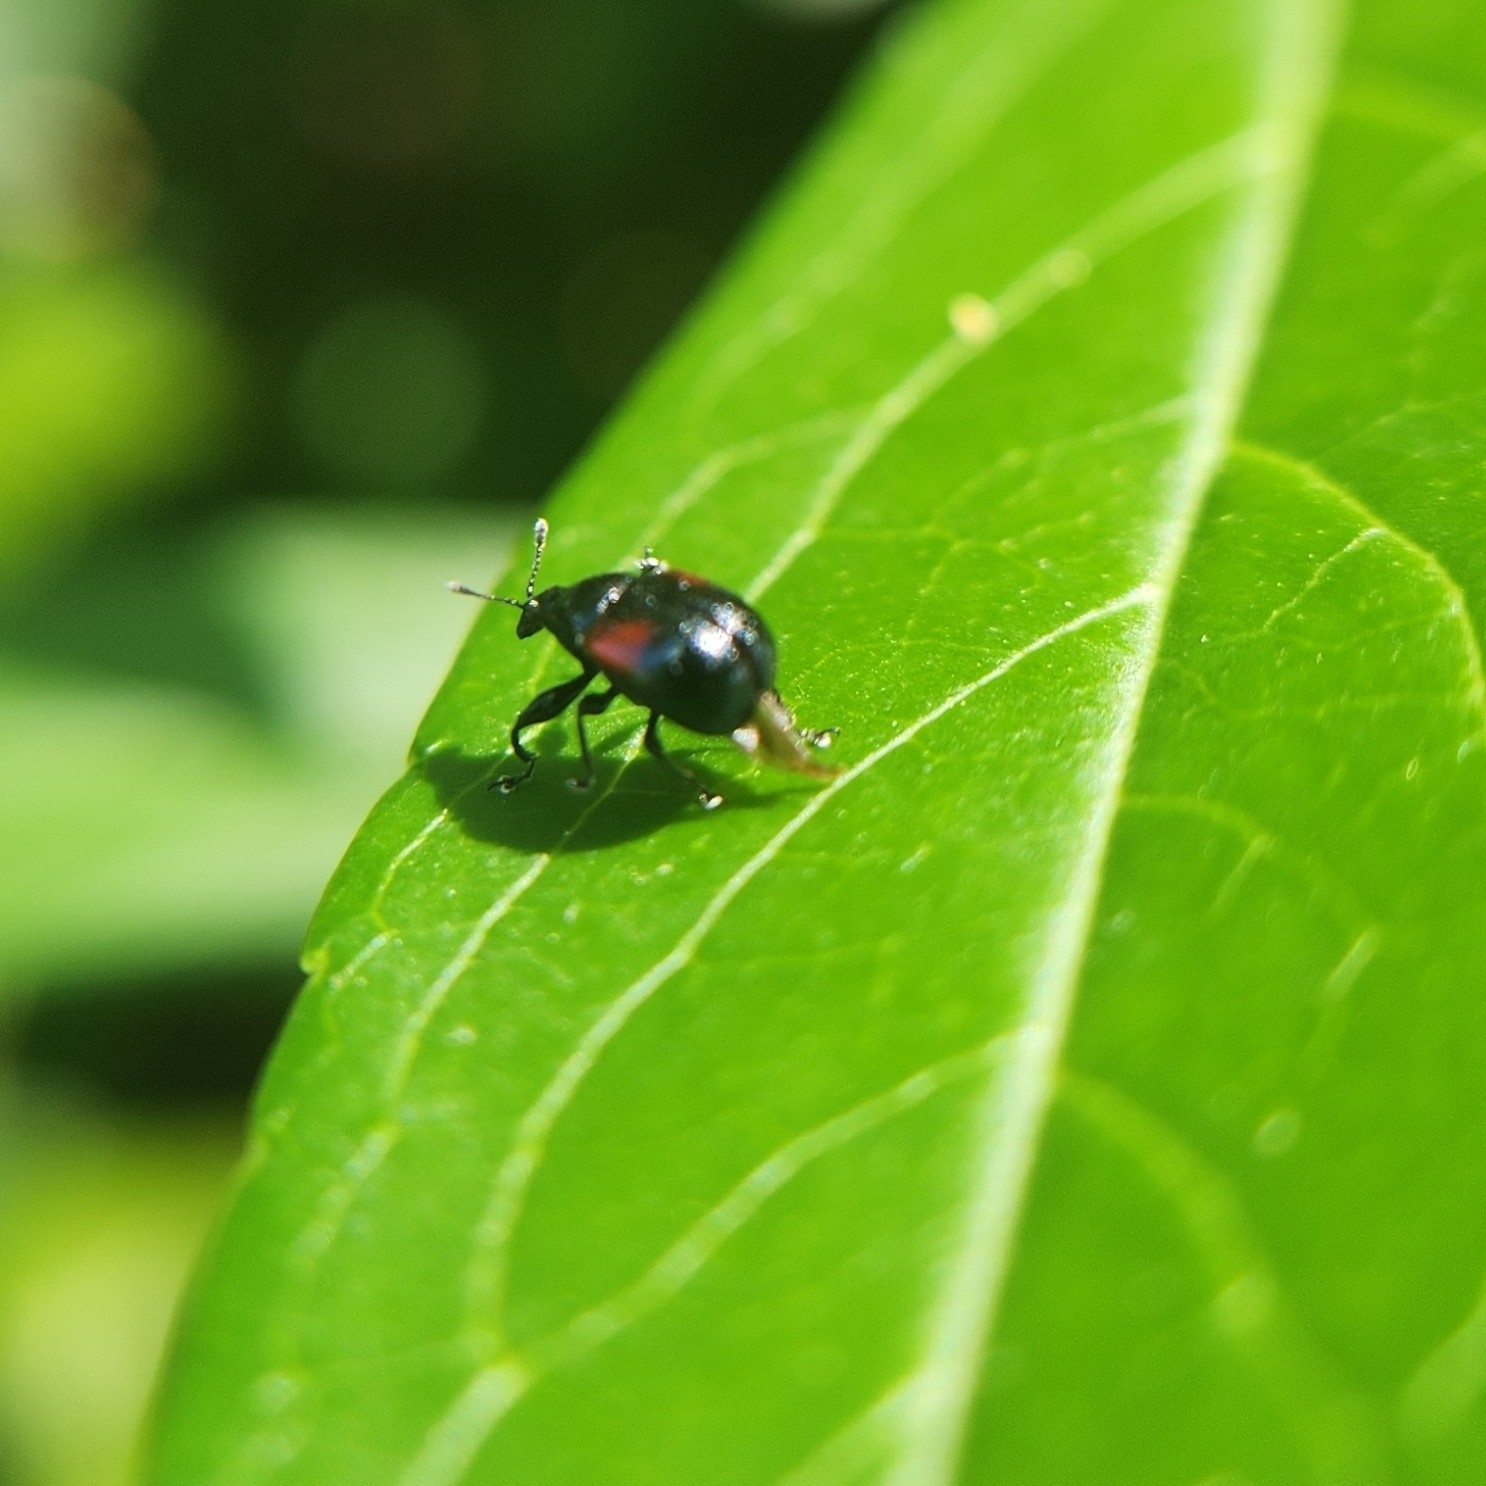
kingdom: Animalia
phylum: Arthropoda
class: Insecta
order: Coleoptera
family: Attelabidae
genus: Attelabus
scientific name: Attelabus bipustulatus
